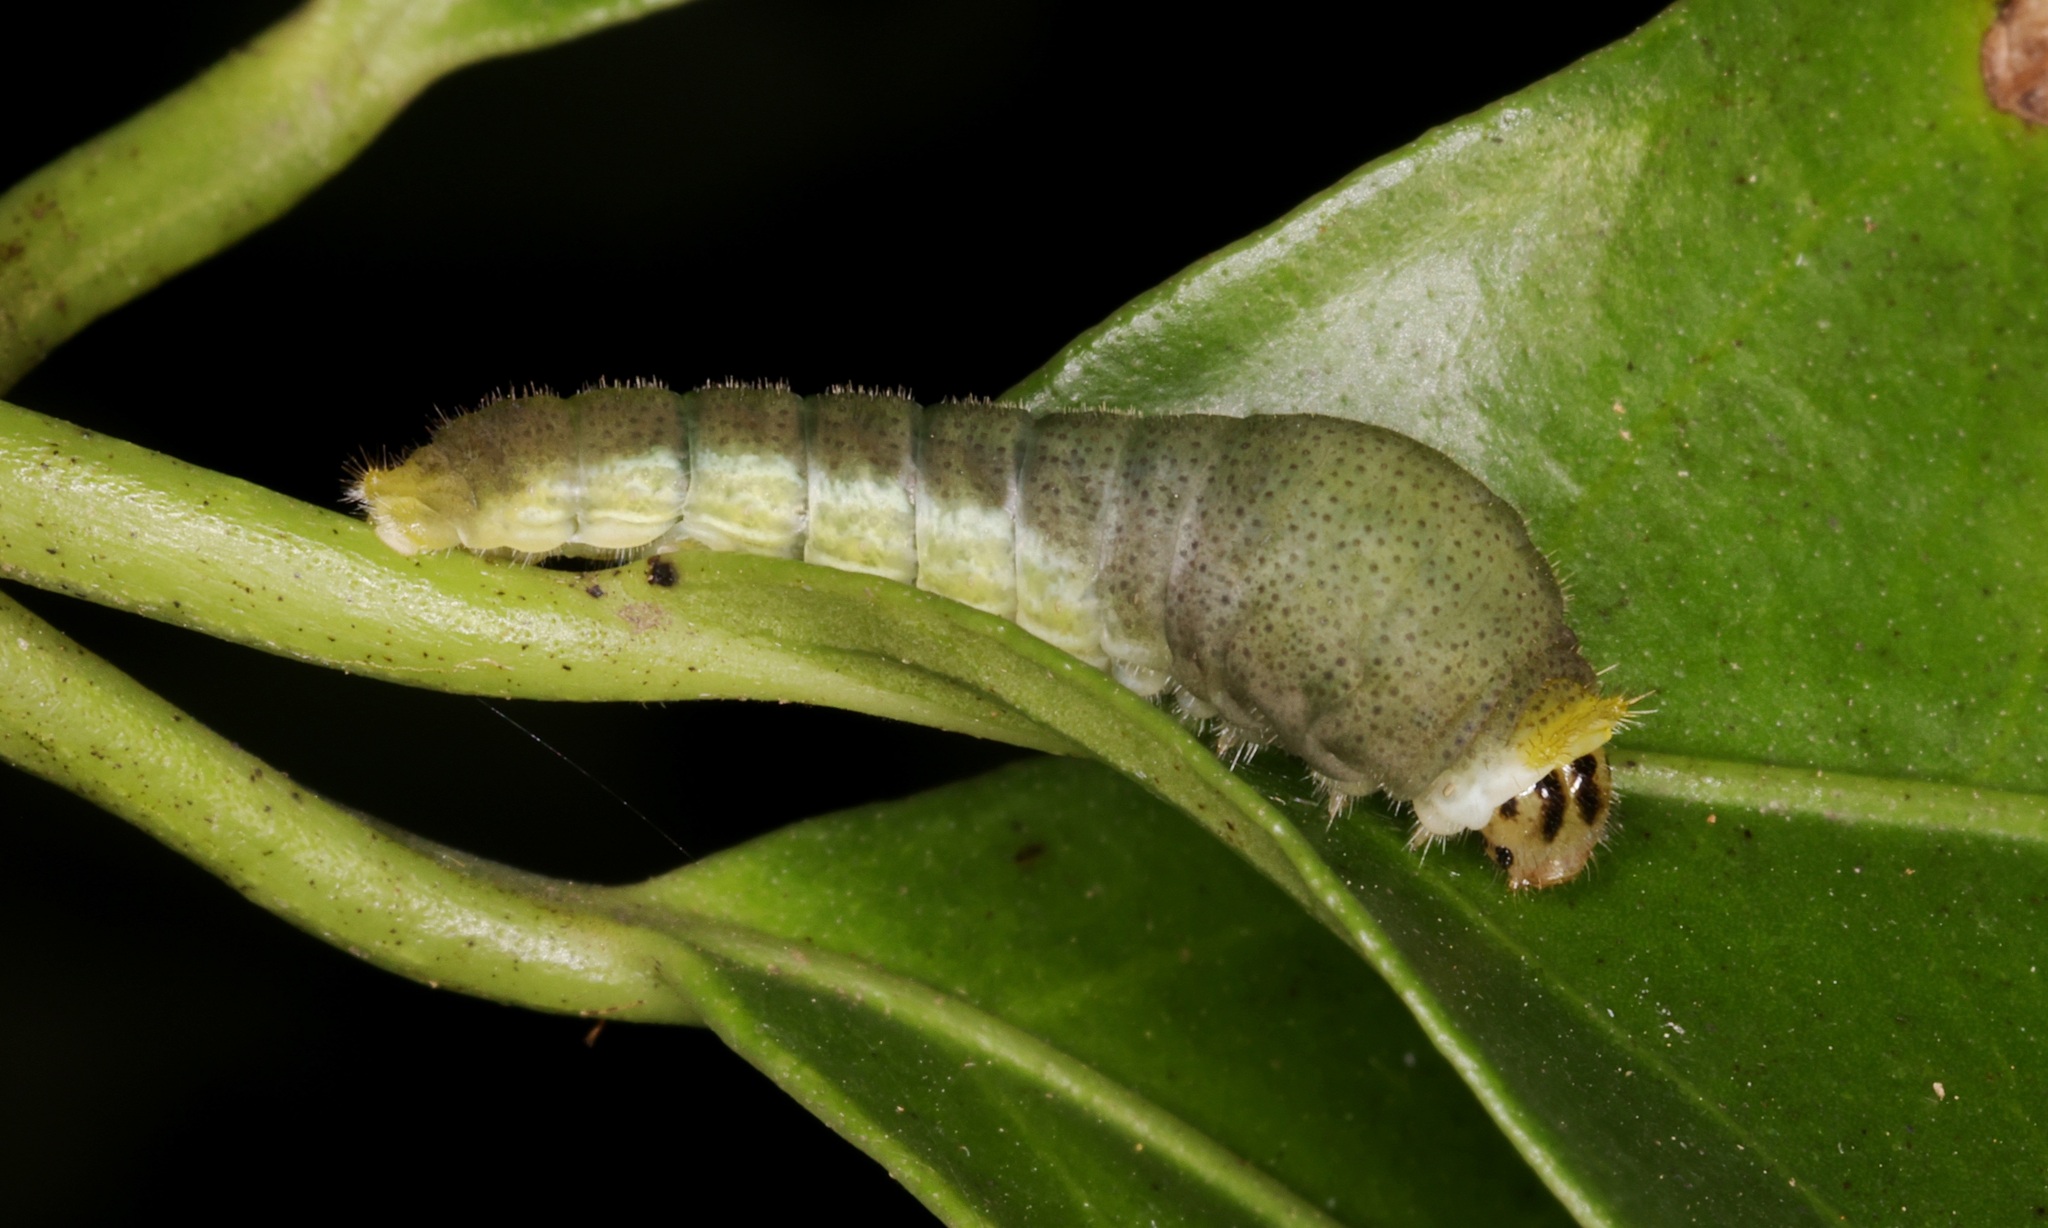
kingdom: Animalia
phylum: Arthropoda
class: Insecta
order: Lepidoptera
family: Papilionidae
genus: Lamproptera
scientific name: Lamproptera curius
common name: White dragontail
